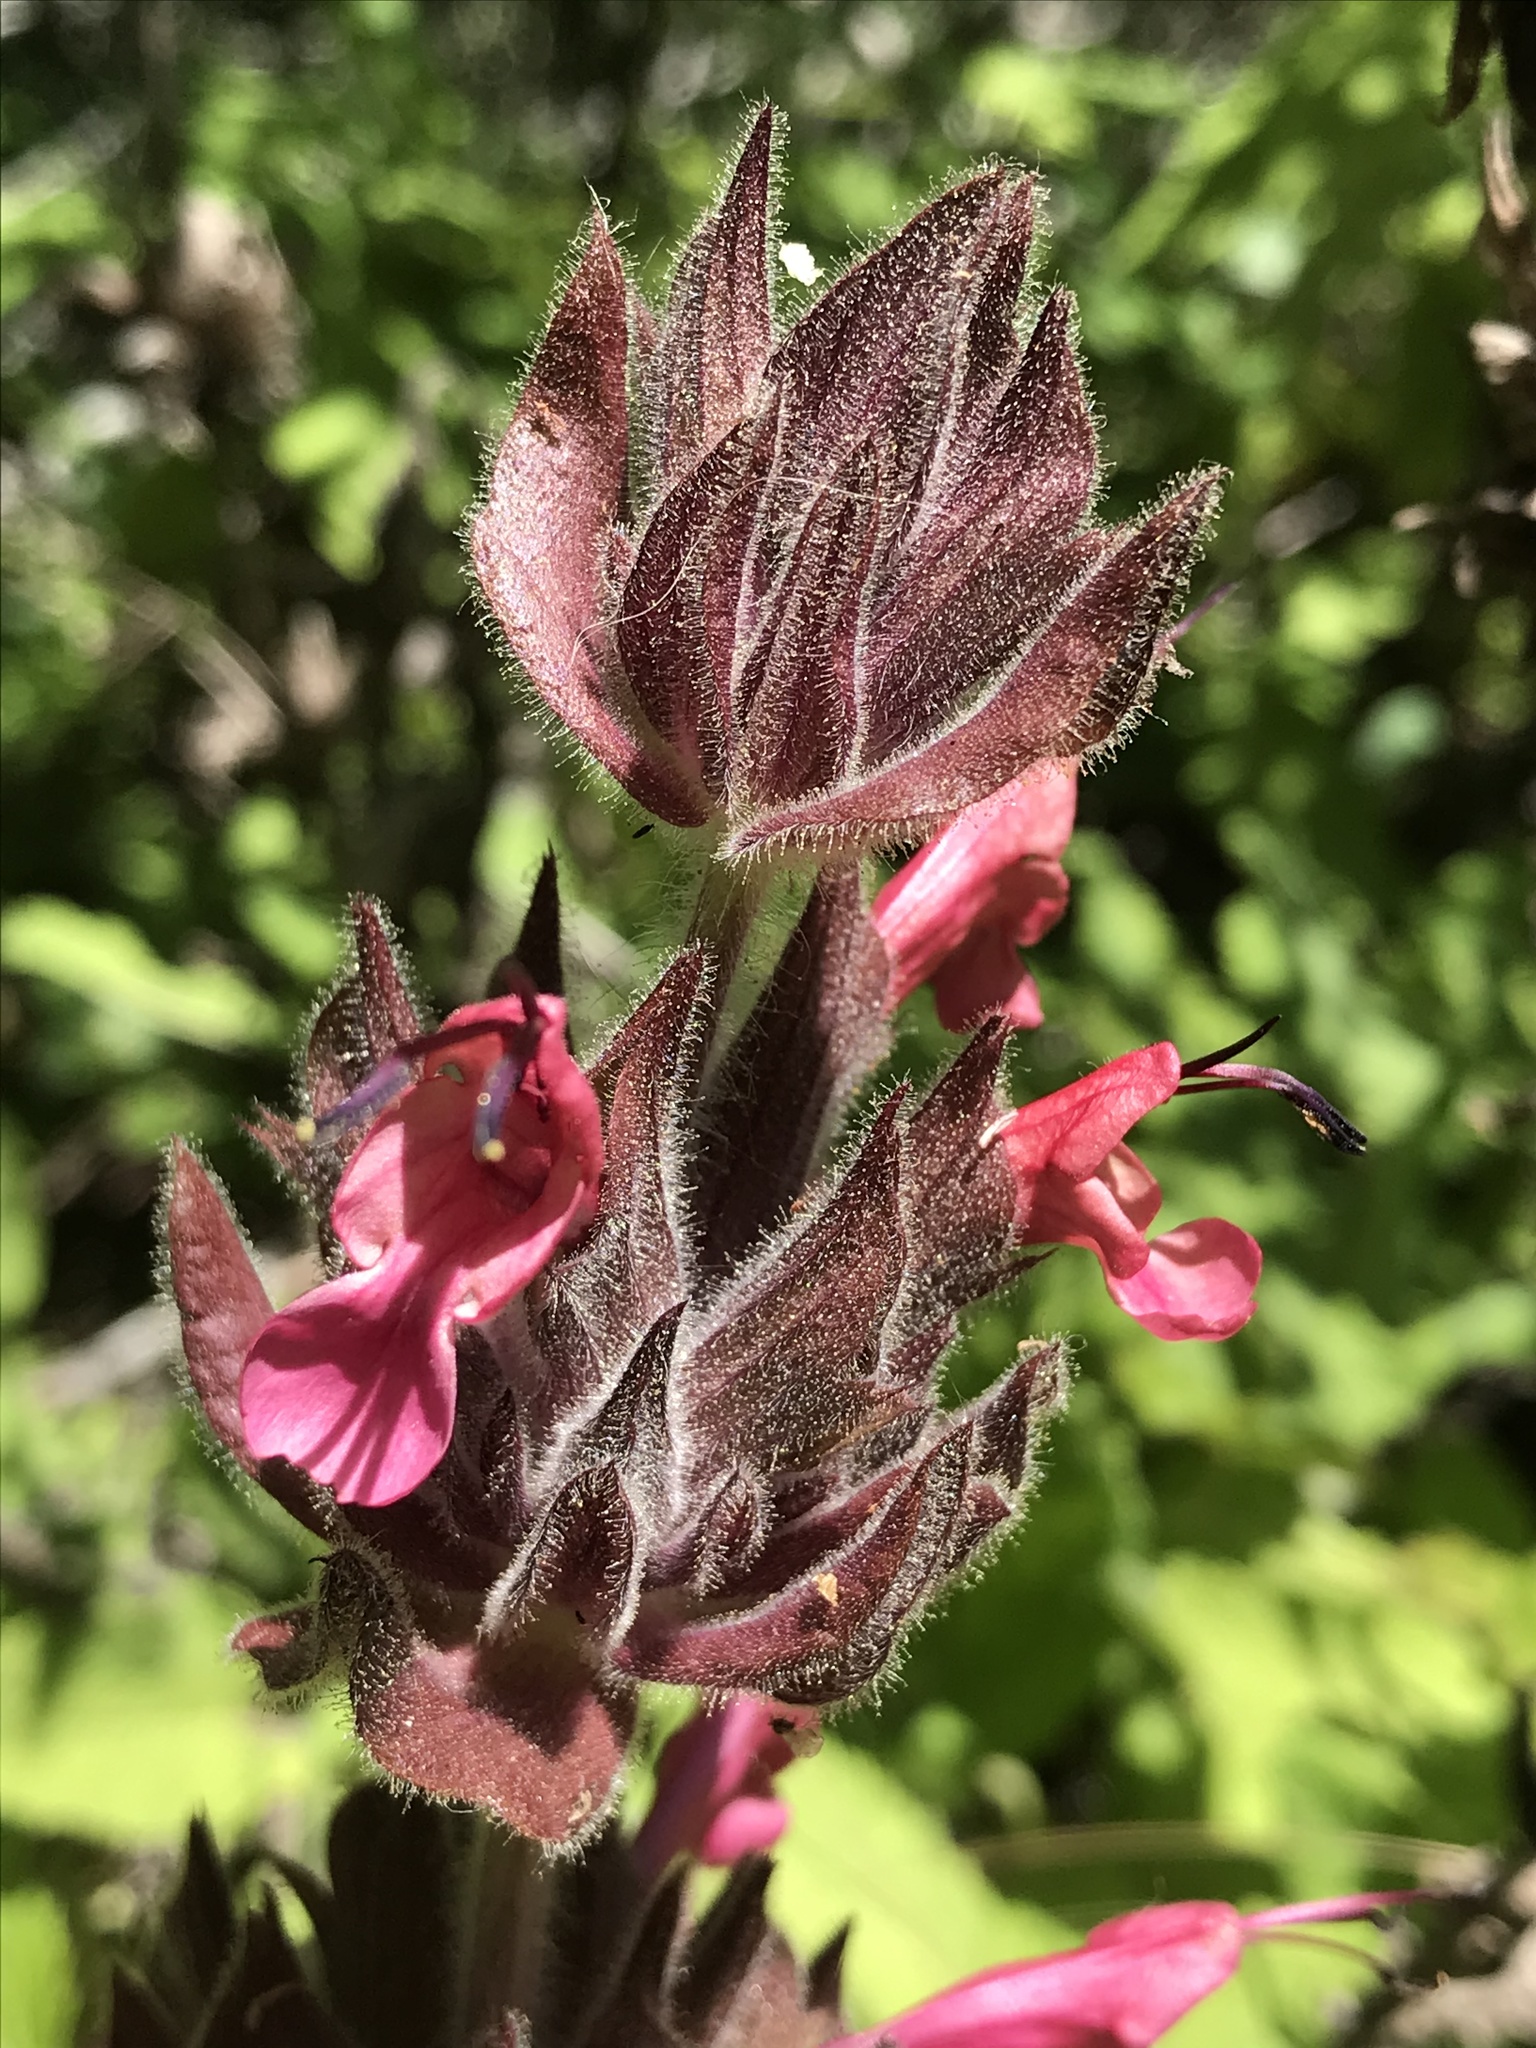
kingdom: Plantae
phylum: Tracheophyta
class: Magnoliopsida
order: Lamiales
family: Lamiaceae
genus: Salvia
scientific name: Salvia spathacea
